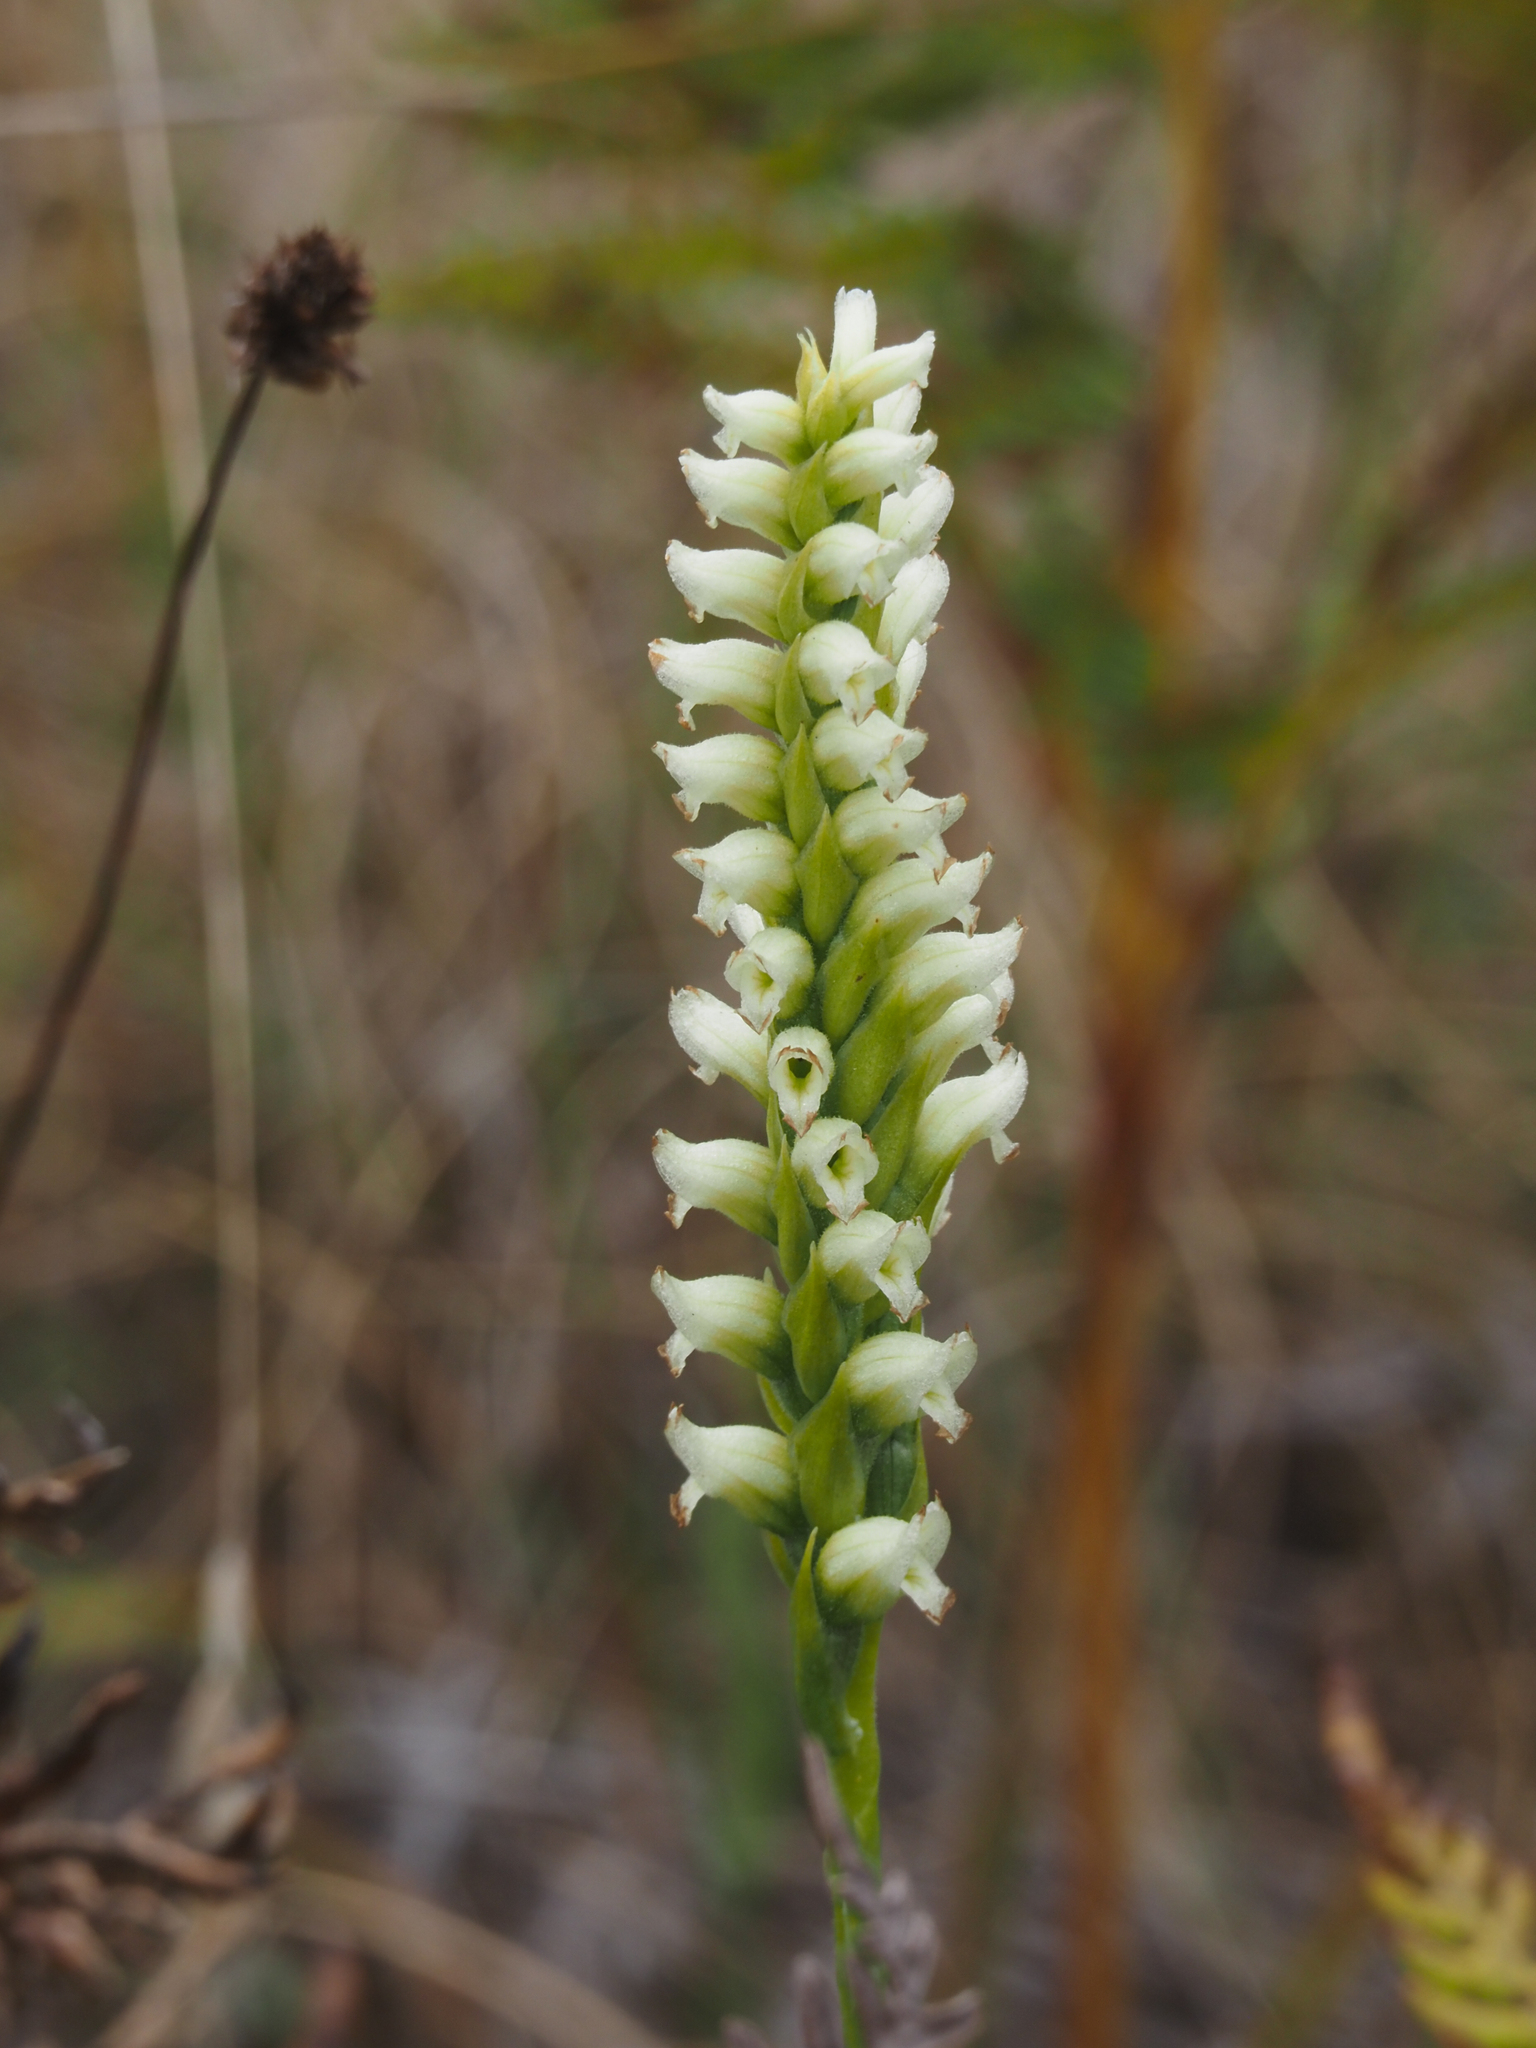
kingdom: Plantae
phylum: Tracheophyta
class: Liliopsida
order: Asparagales
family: Orchidaceae
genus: Spiranthes
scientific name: Spiranthes romanzoffiana
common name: Irish lady's-tresses
